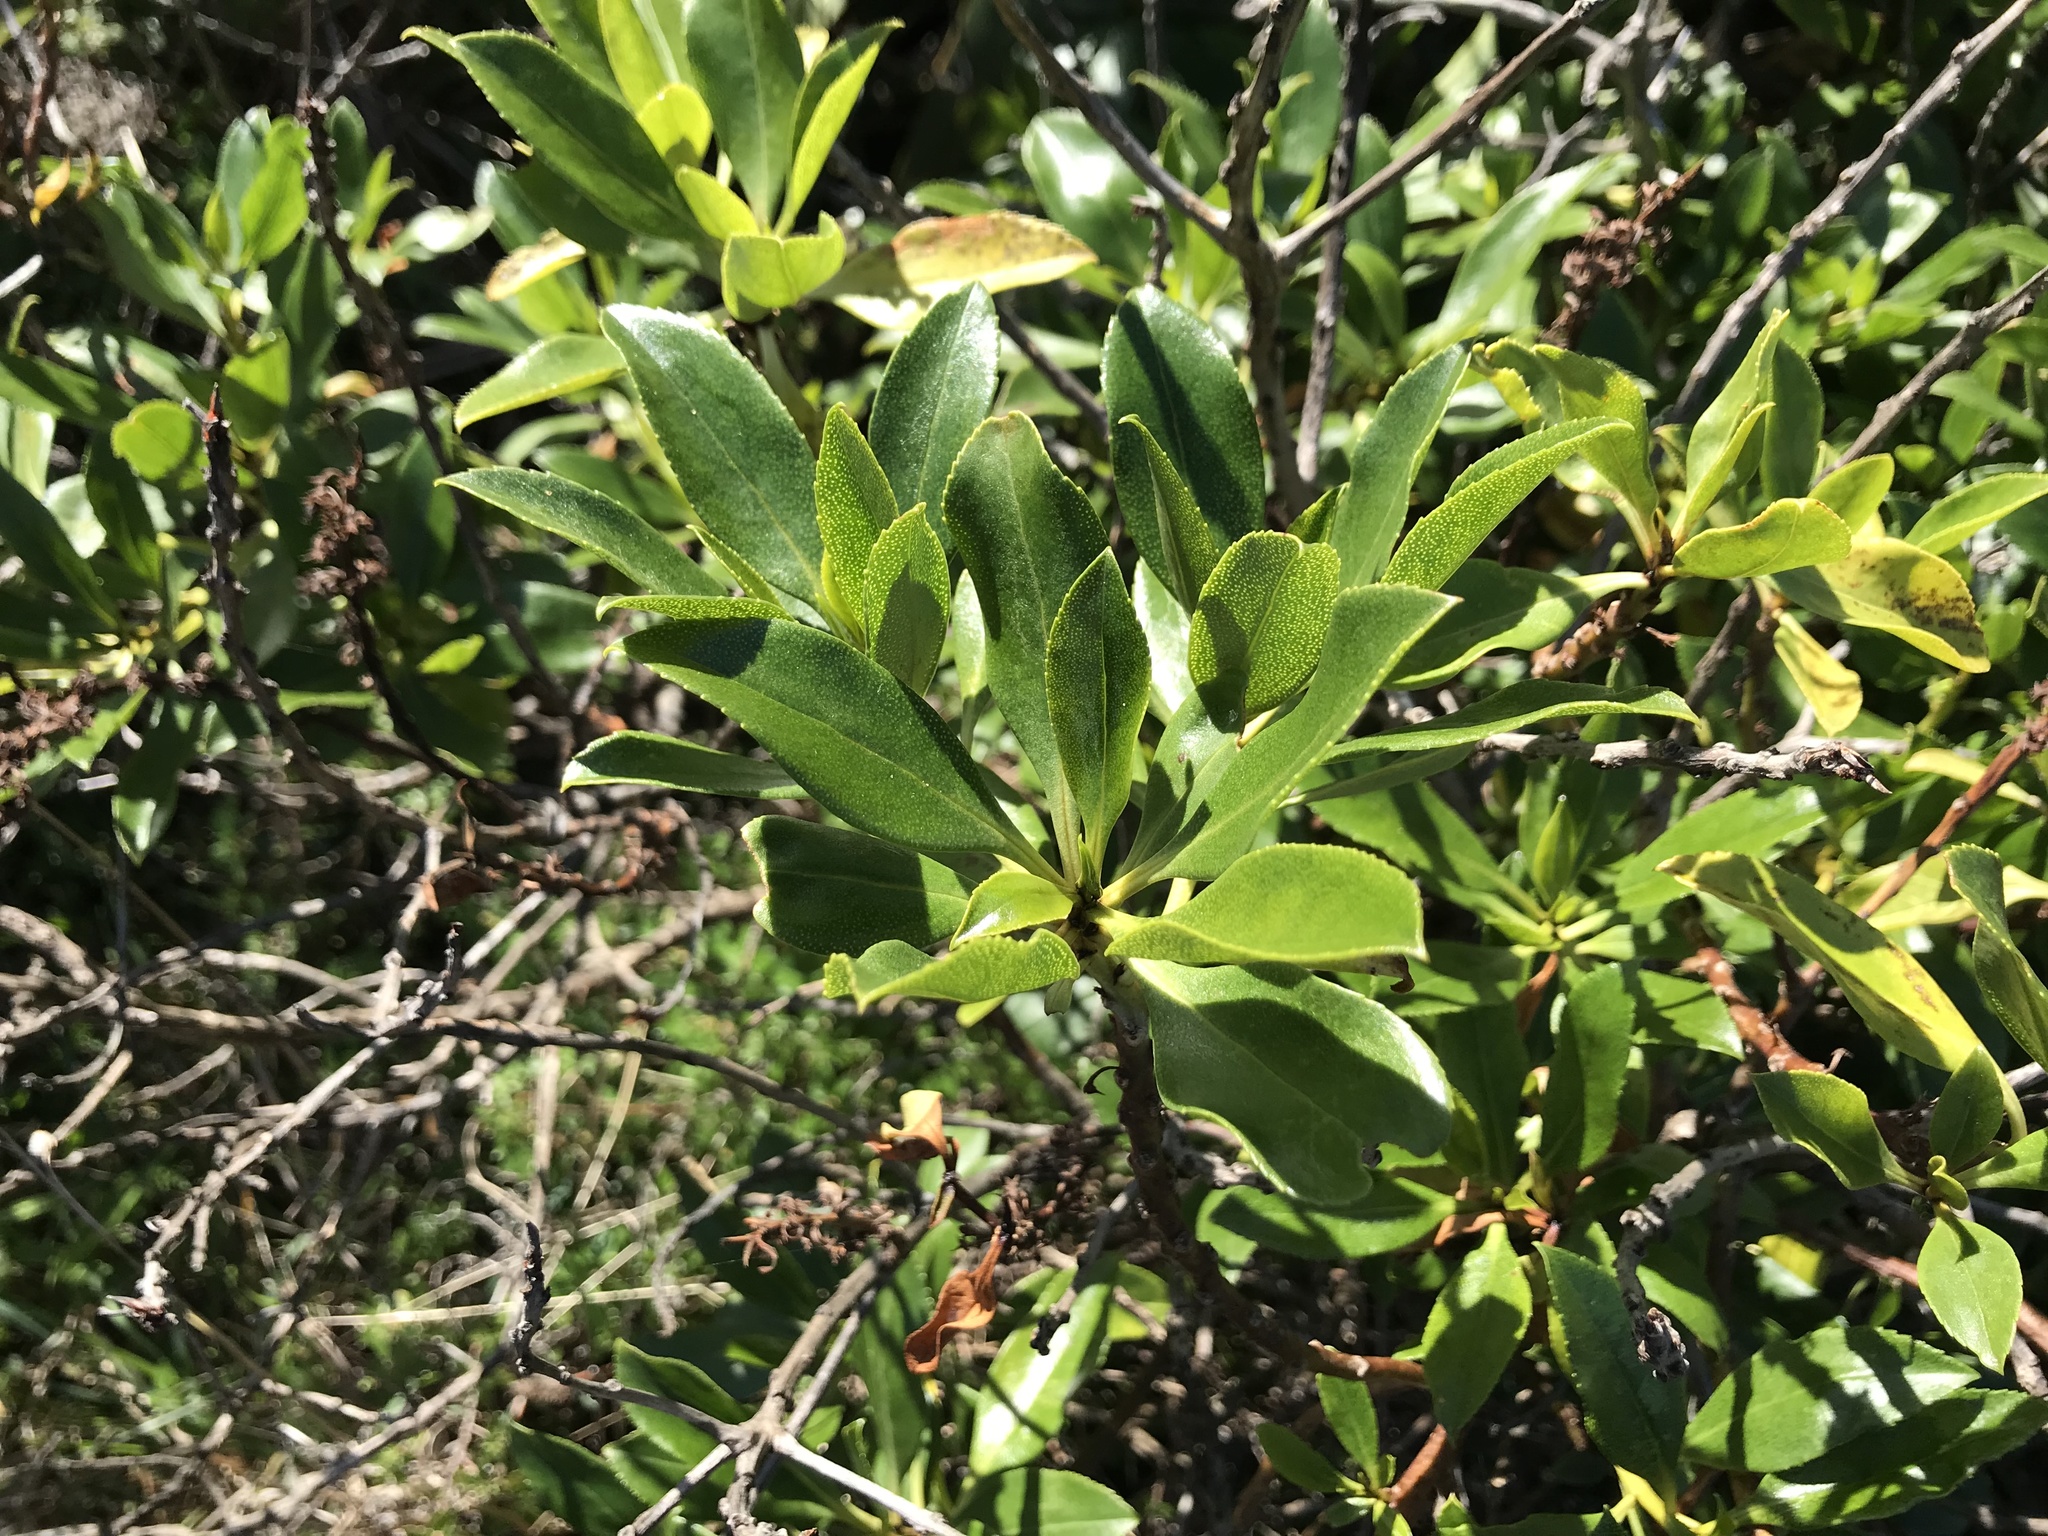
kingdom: Plantae
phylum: Tracheophyta
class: Magnoliopsida
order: Lamiales
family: Scrophulariaceae
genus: Myoporum
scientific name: Myoporum laetum
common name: Ngaio tree
